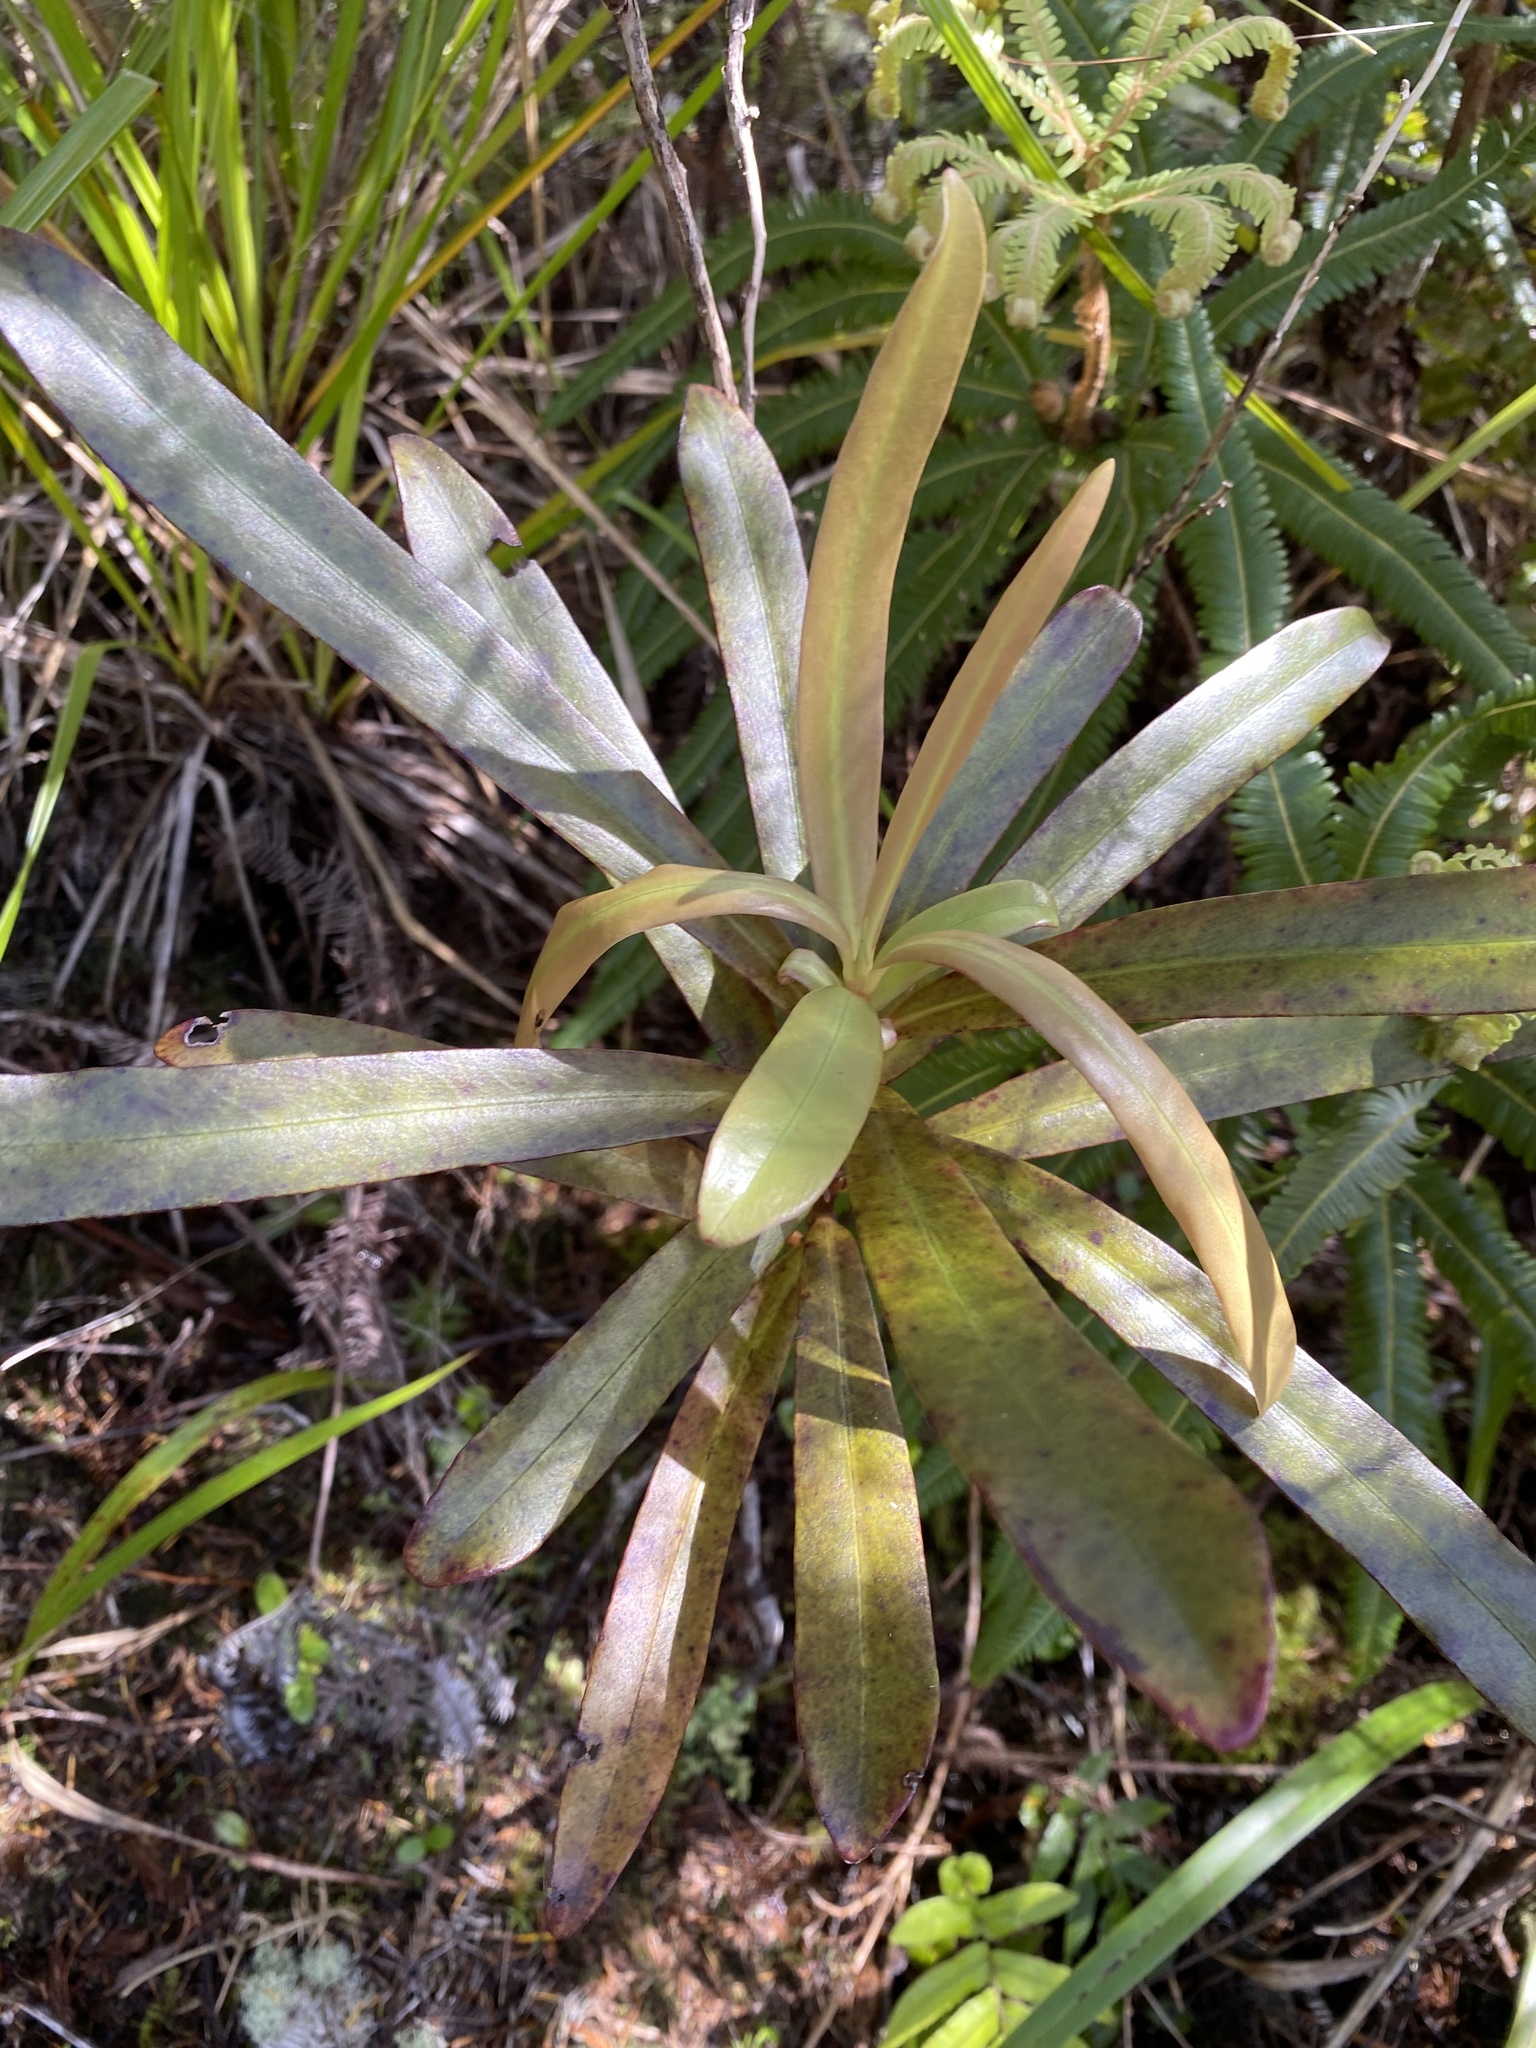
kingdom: Plantae
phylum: Tracheophyta
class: Magnoliopsida
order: Ericales
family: Primulaceae
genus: Myrsine
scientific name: Myrsine salicina
